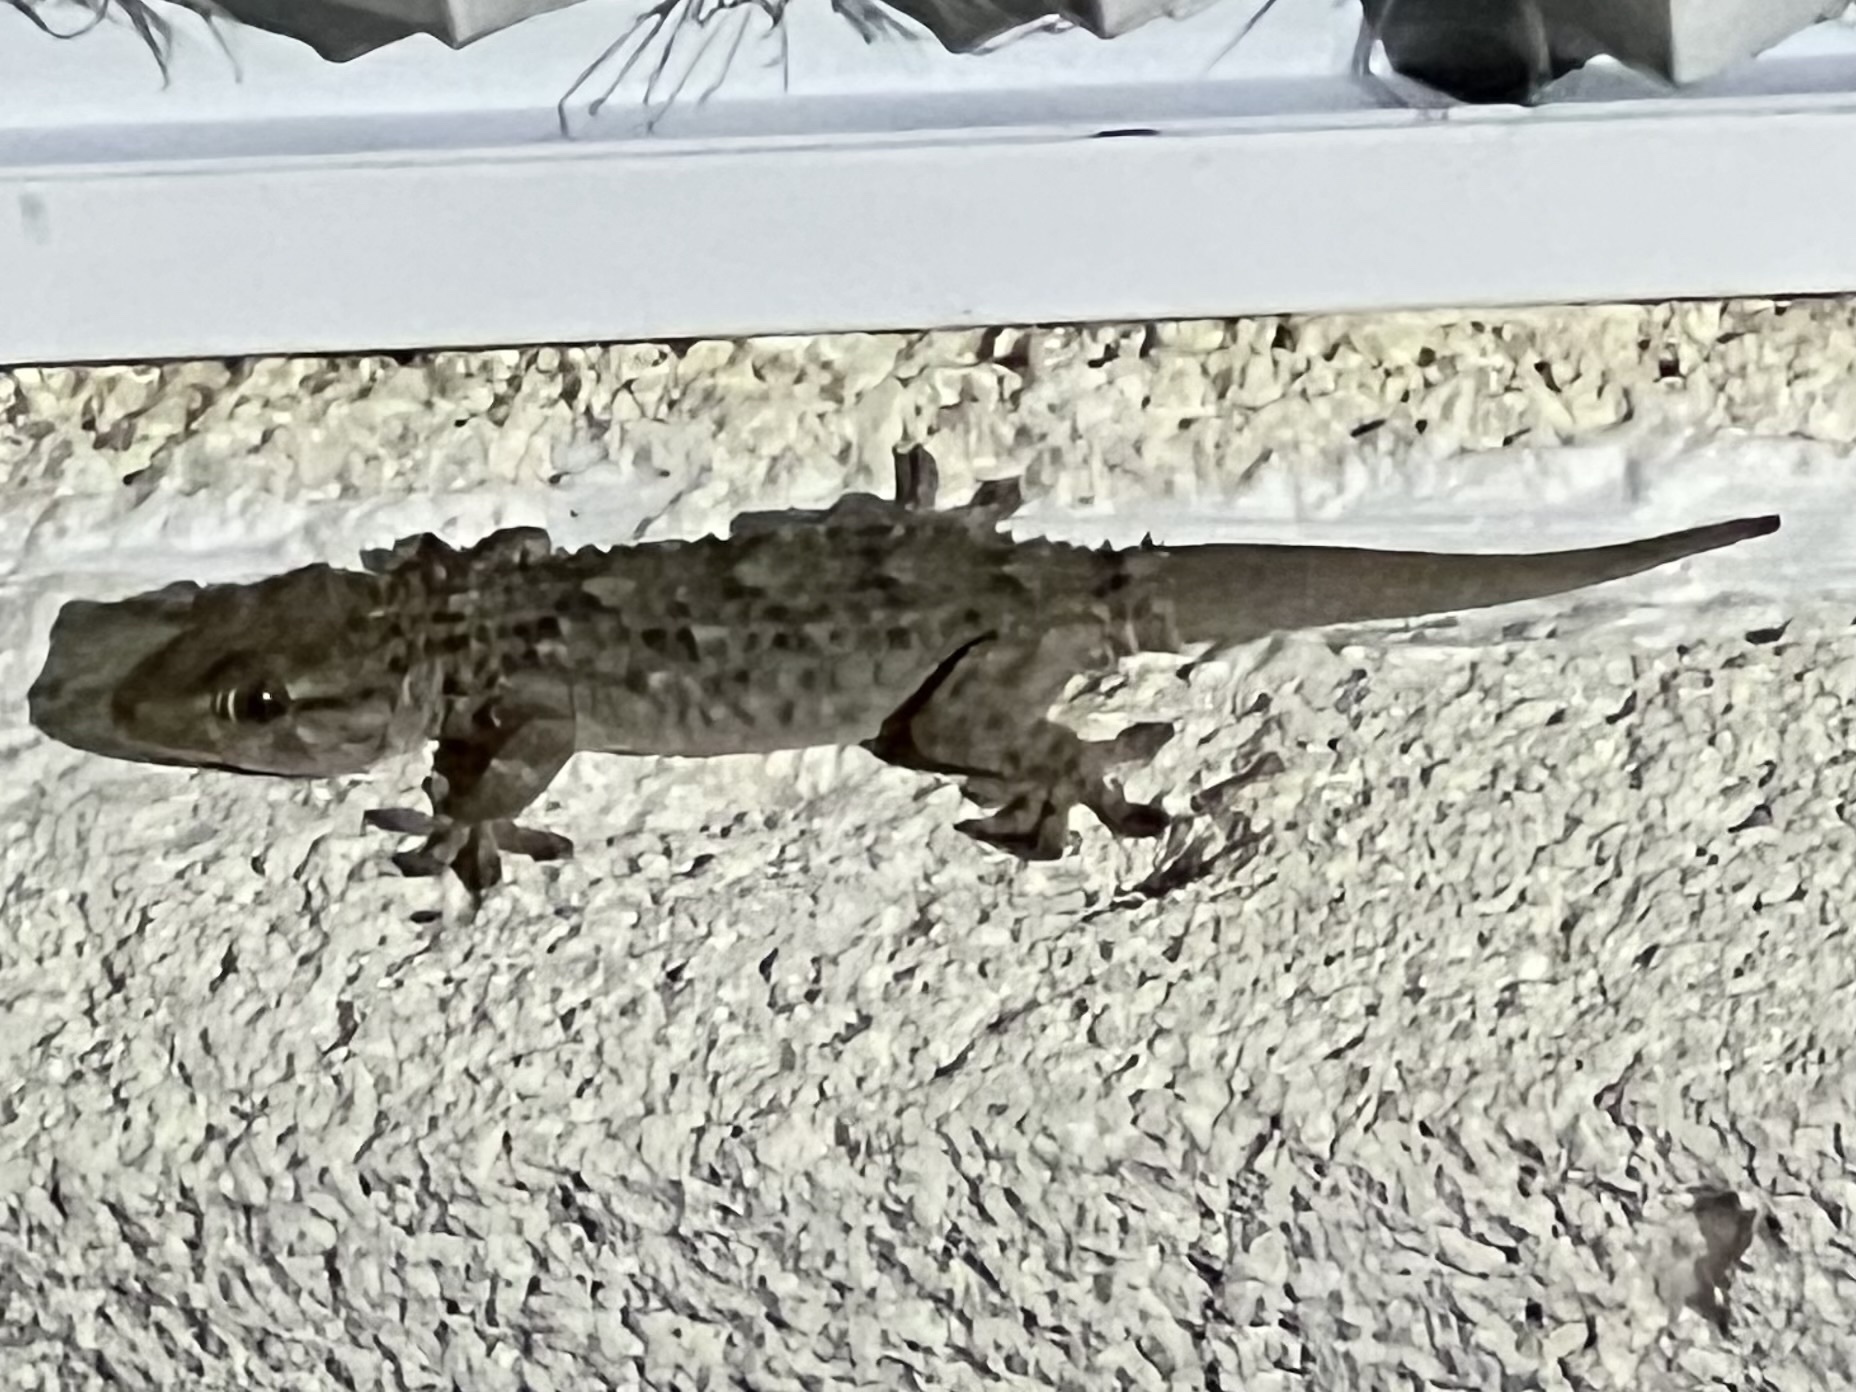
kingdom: Animalia
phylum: Chordata
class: Squamata
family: Phyllodactylidae
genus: Tarentola
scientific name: Tarentola mauritanica
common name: Moorish gecko
